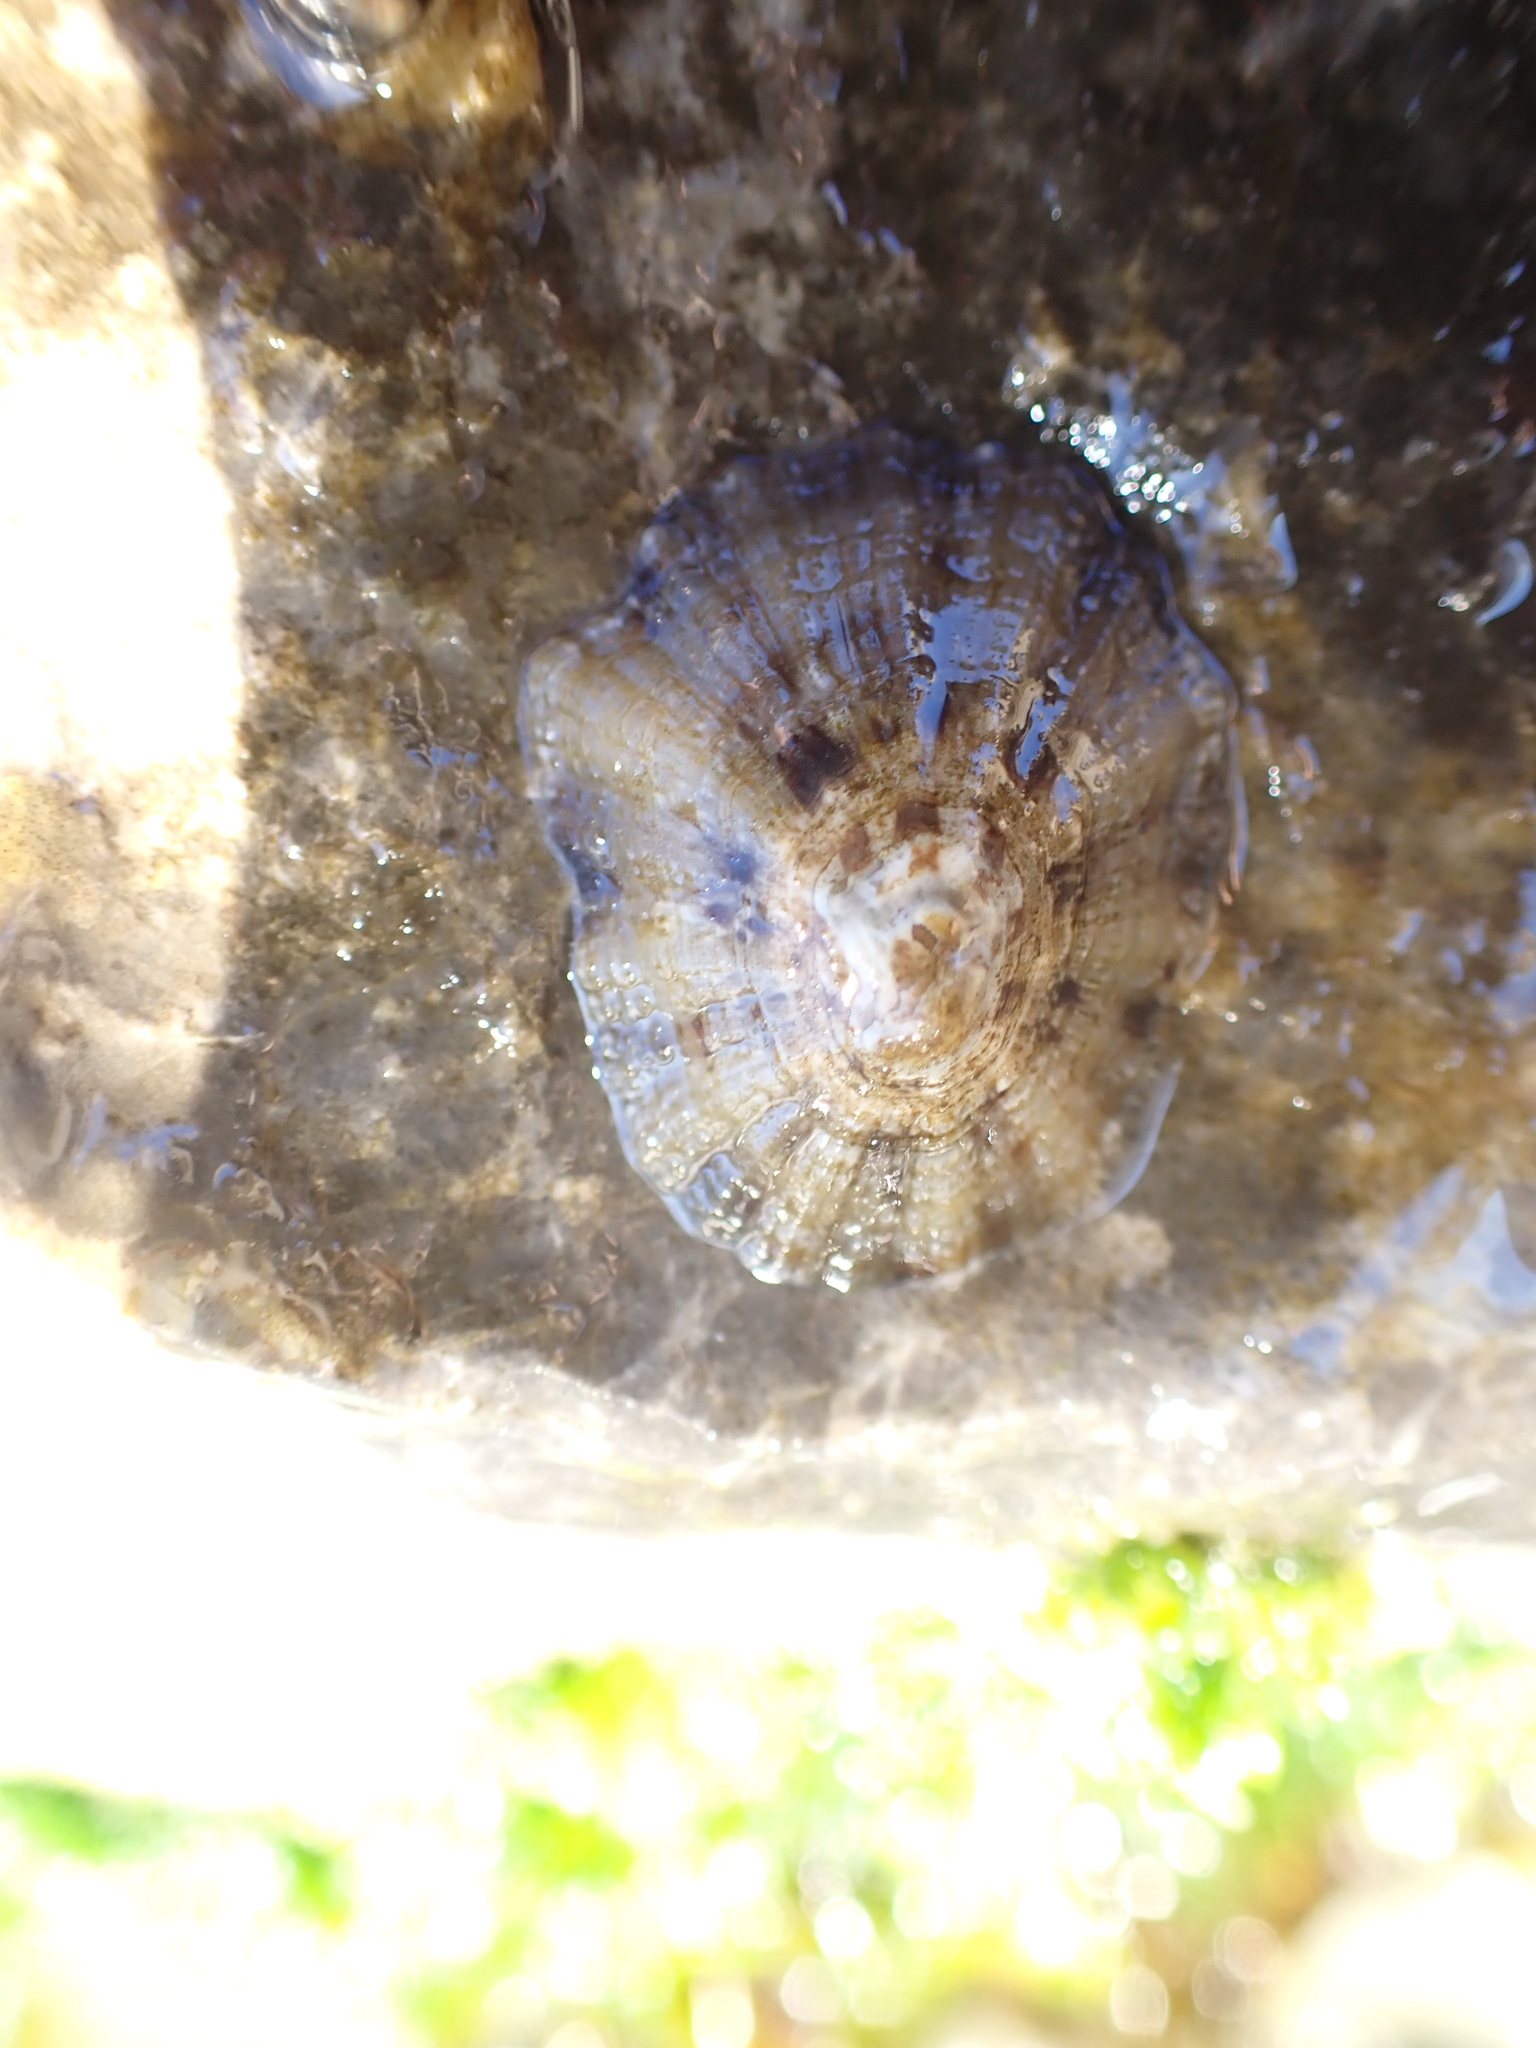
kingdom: Animalia
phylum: Mollusca
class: Gastropoda
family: Patellidae
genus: Patella
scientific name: Patella caerulea
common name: Mediterranean limpet
